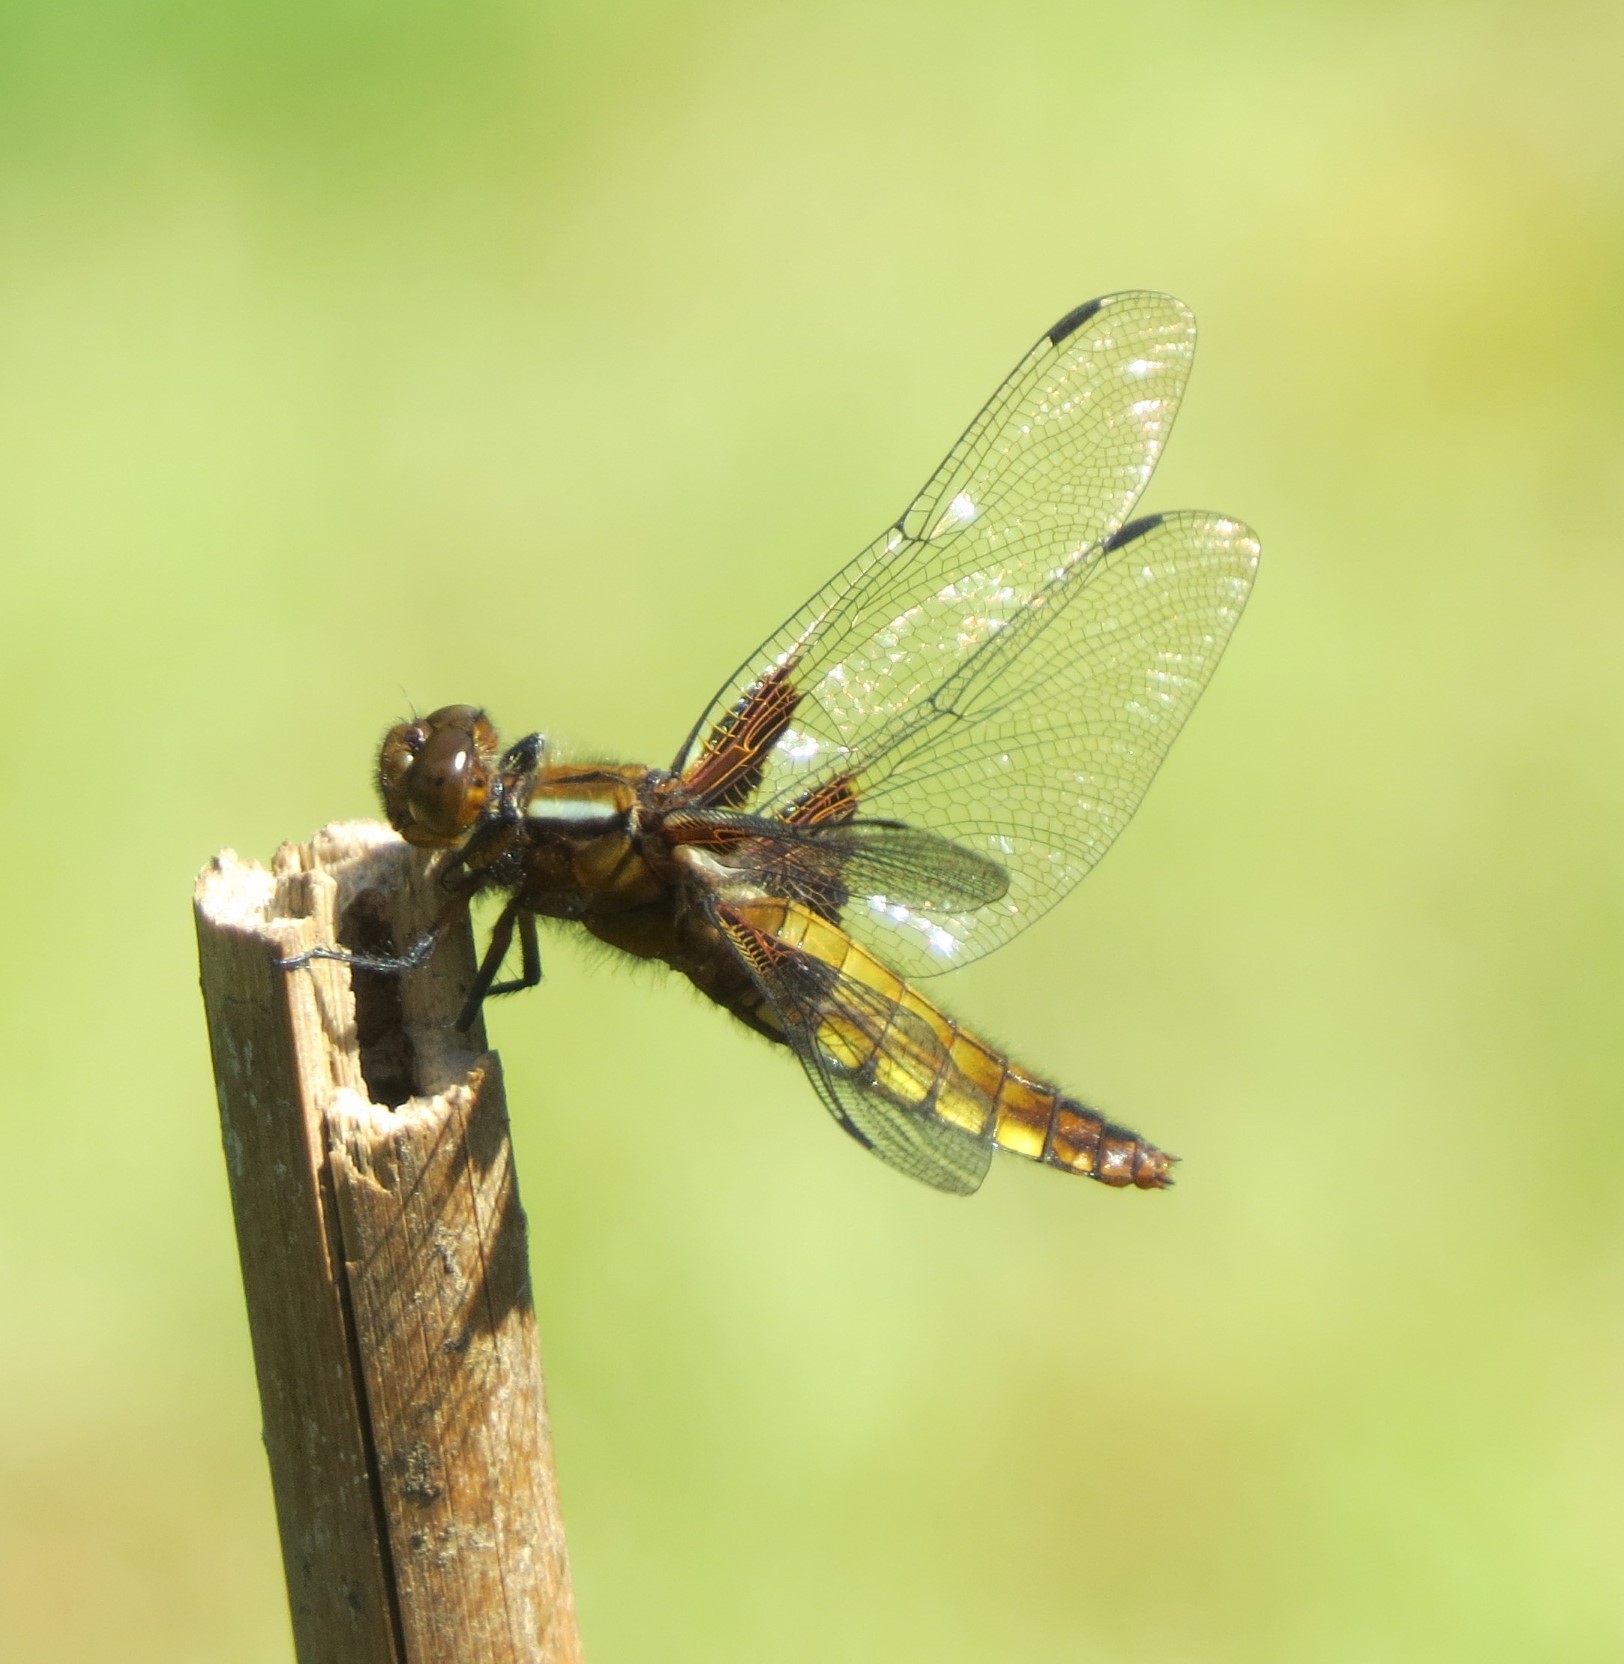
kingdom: Animalia
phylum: Arthropoda
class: Insecta
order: Odonata
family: Libellulidae
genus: Libellula
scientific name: Libellula depressa
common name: Broad-bodied chaser
